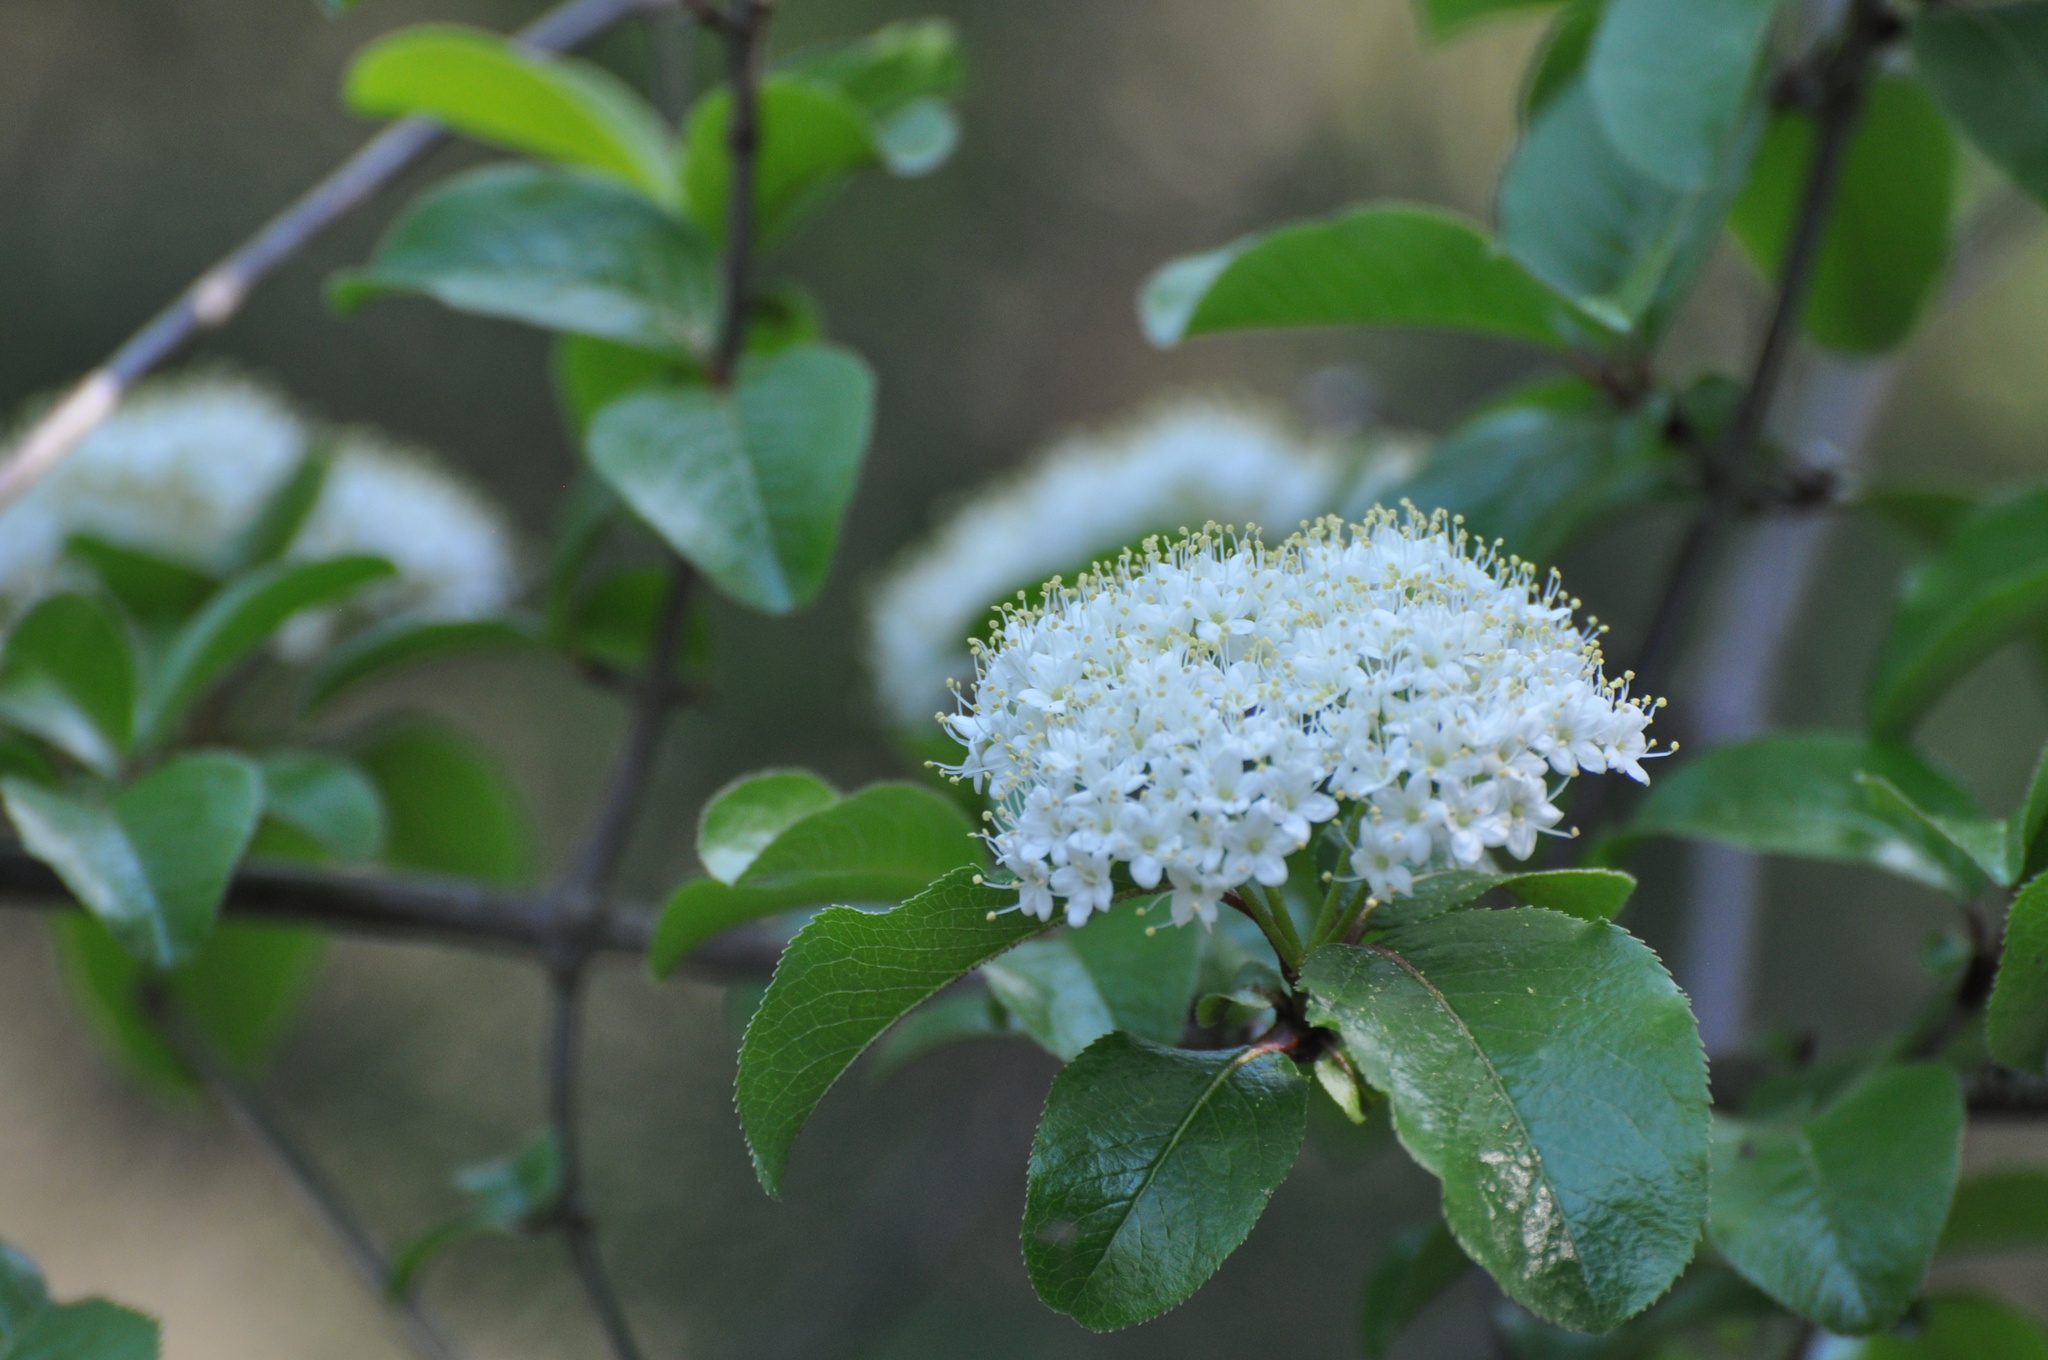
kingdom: Plantae
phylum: Tracheophyta
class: Magnoliopsida
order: Dipsacales
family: Viburnaceae
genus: Viburnum
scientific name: Viburnum rufidulum
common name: Blue haw
